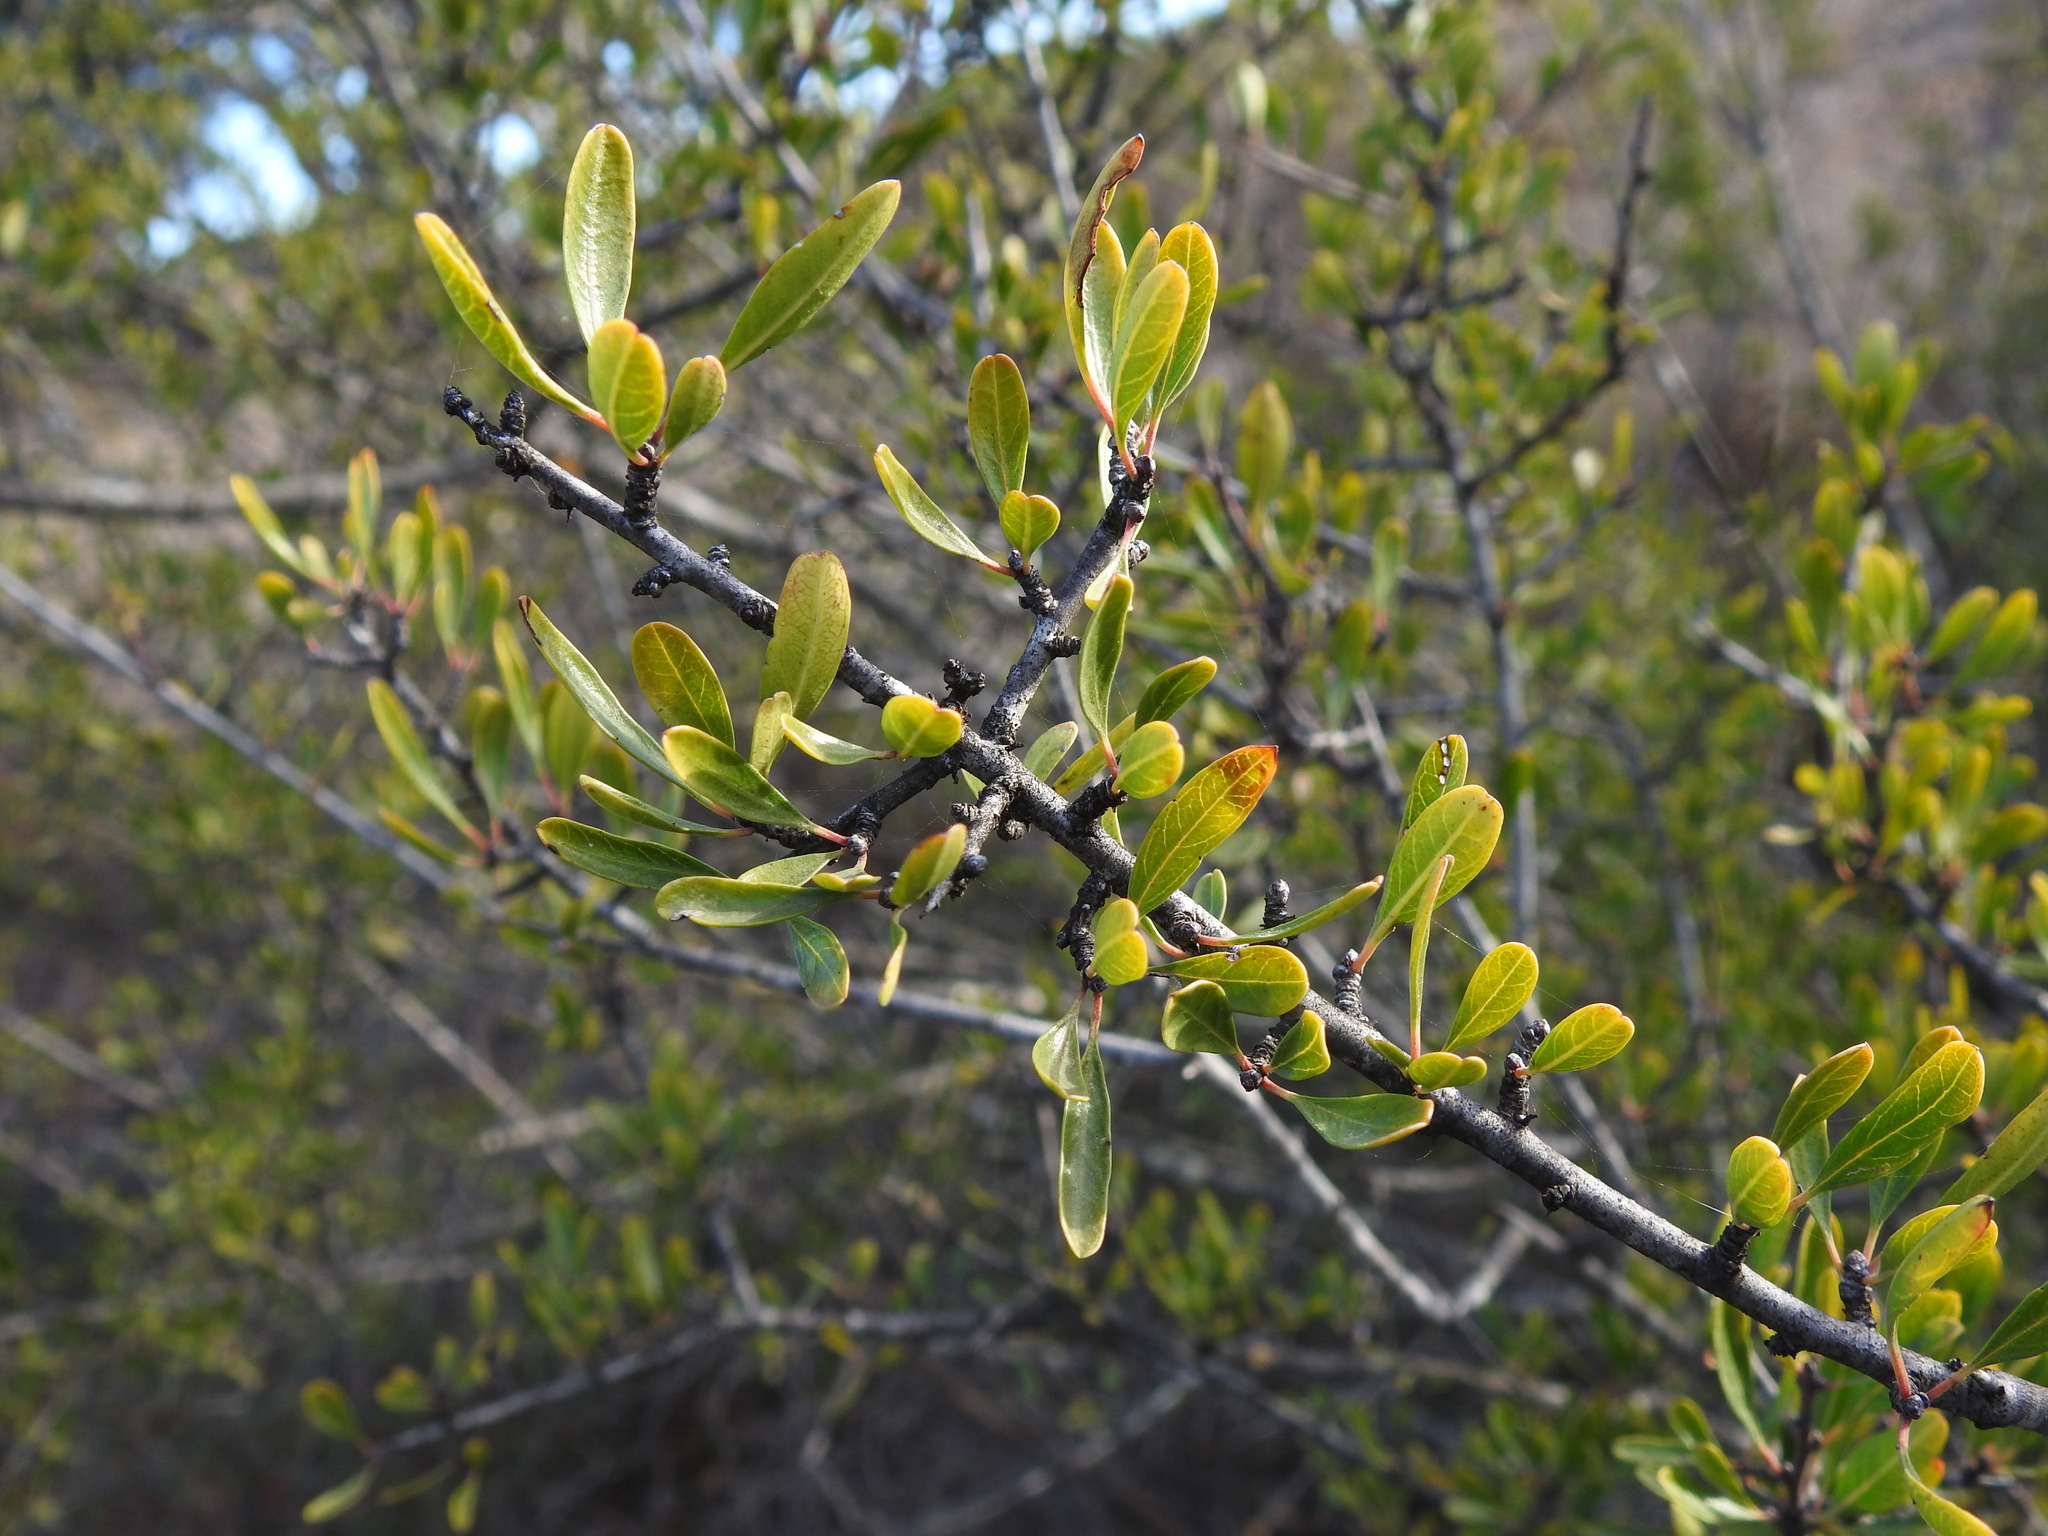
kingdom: Plantae
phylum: Tracheophyta
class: Magnoliopsida
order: Rosales
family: Rhamnaceae
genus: Rhamnus
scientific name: Rhamnus oleoides
